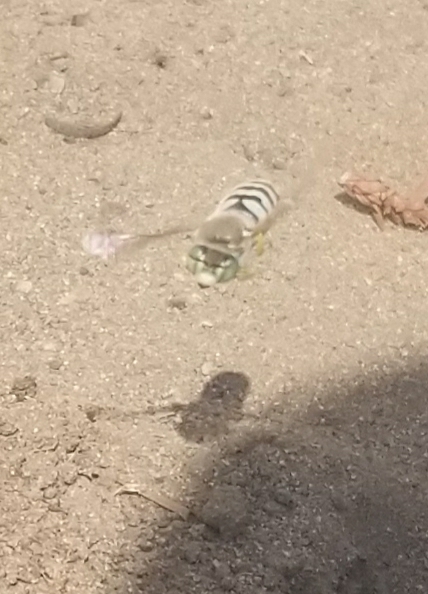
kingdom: Animalia
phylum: Arthropoda
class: Insecta
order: Hymenoptera
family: Crabronidae
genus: Bembix
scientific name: Bembix americana
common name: American sand wasp
